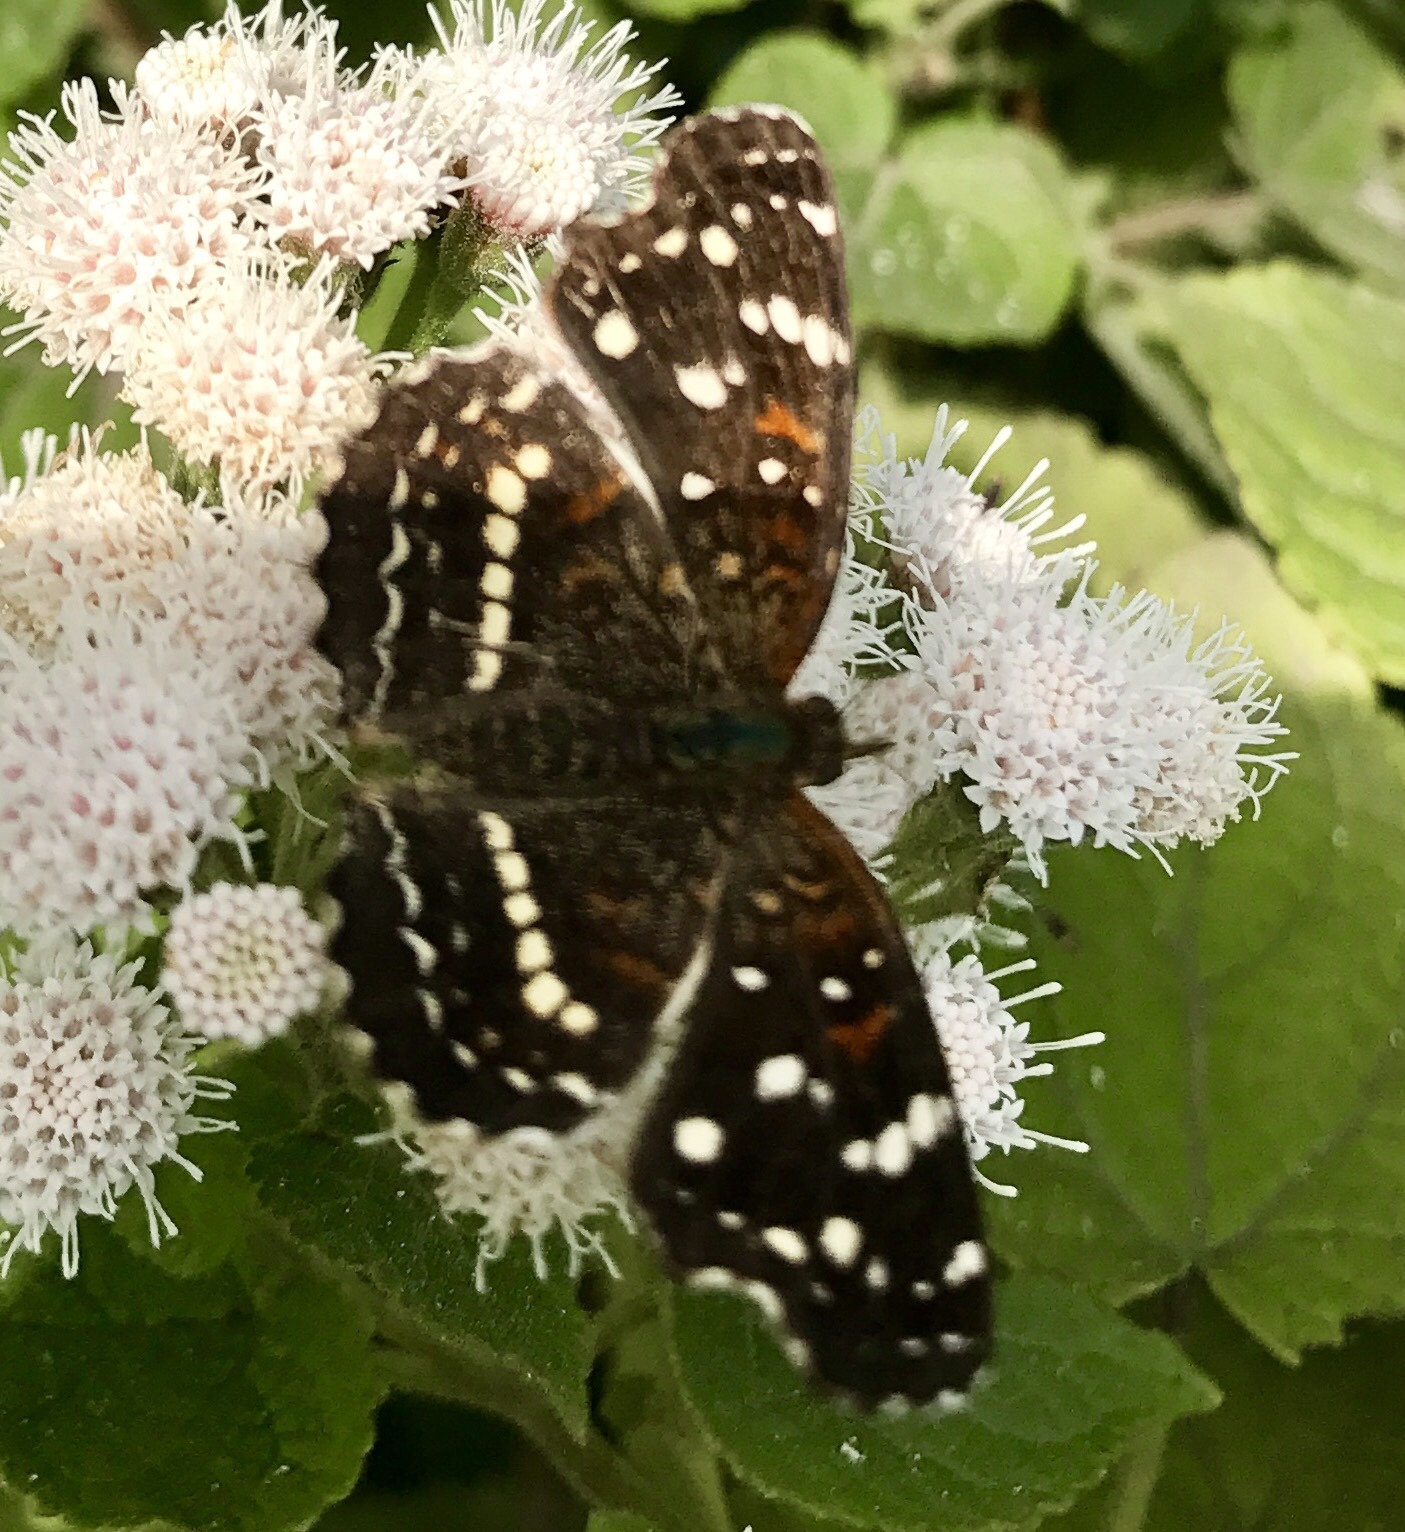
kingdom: Animalia
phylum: Arthropoda
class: Insecta
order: Lepidoptera
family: Nymphalidae
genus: Anthanassa
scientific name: Anthanassa texana
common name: Texan crescent
